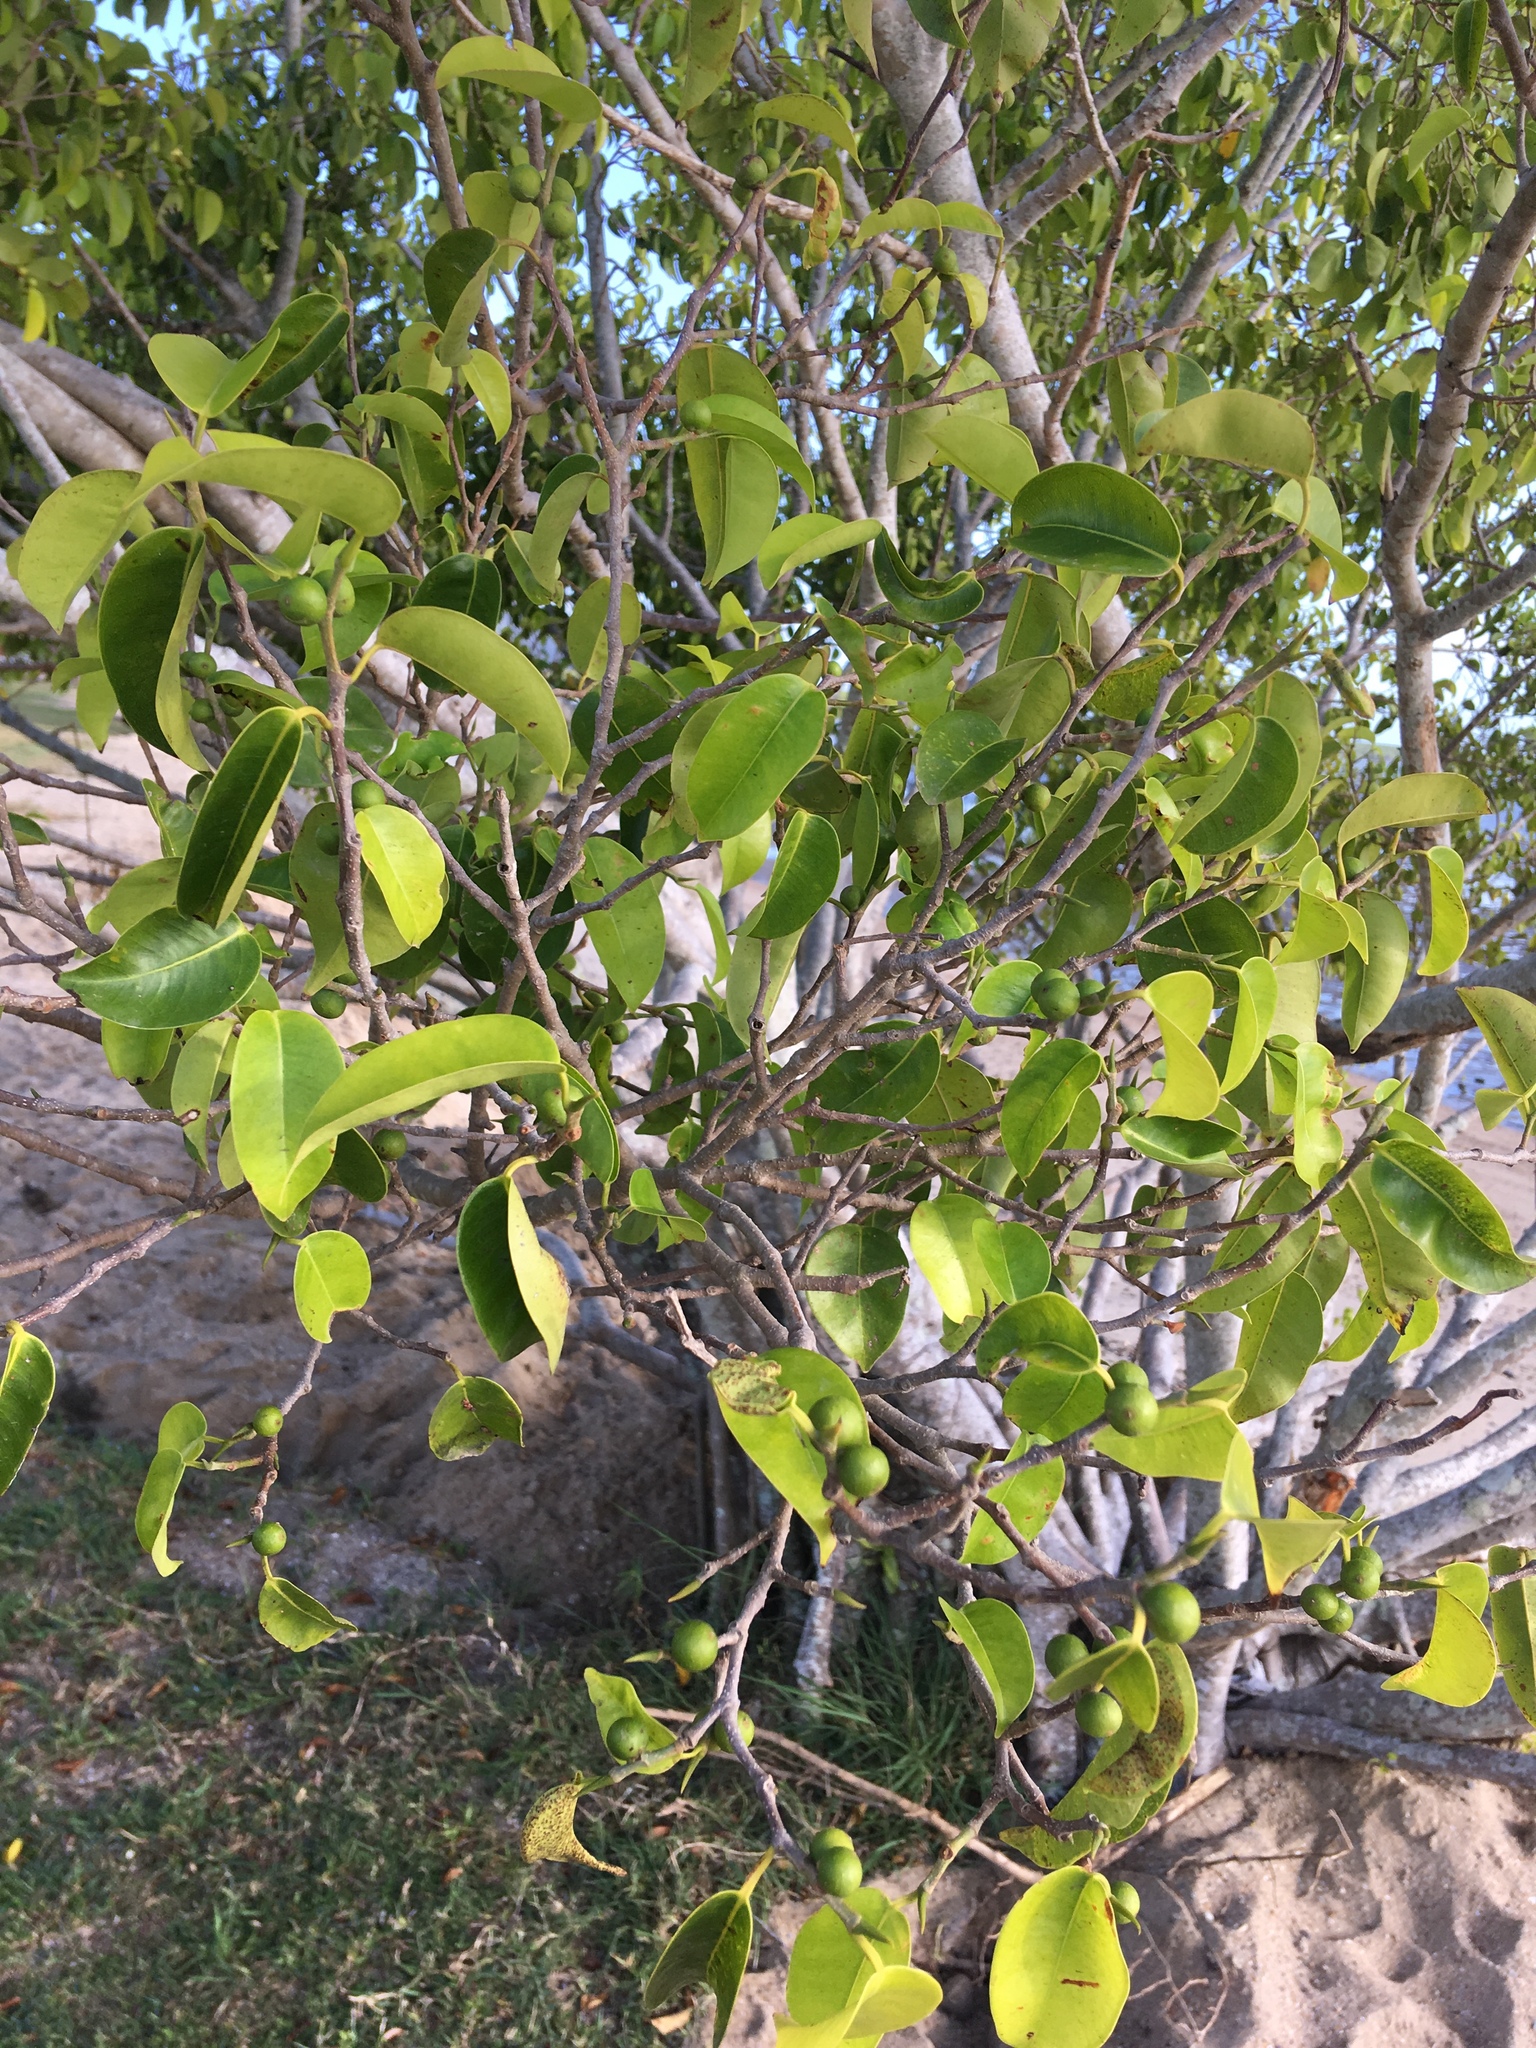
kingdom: Plantae
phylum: Tracheophyta
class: Magnoliopsida
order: Rosales
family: Moraceae
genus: Ficus
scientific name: Ficus benjamina
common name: Weeping fig
